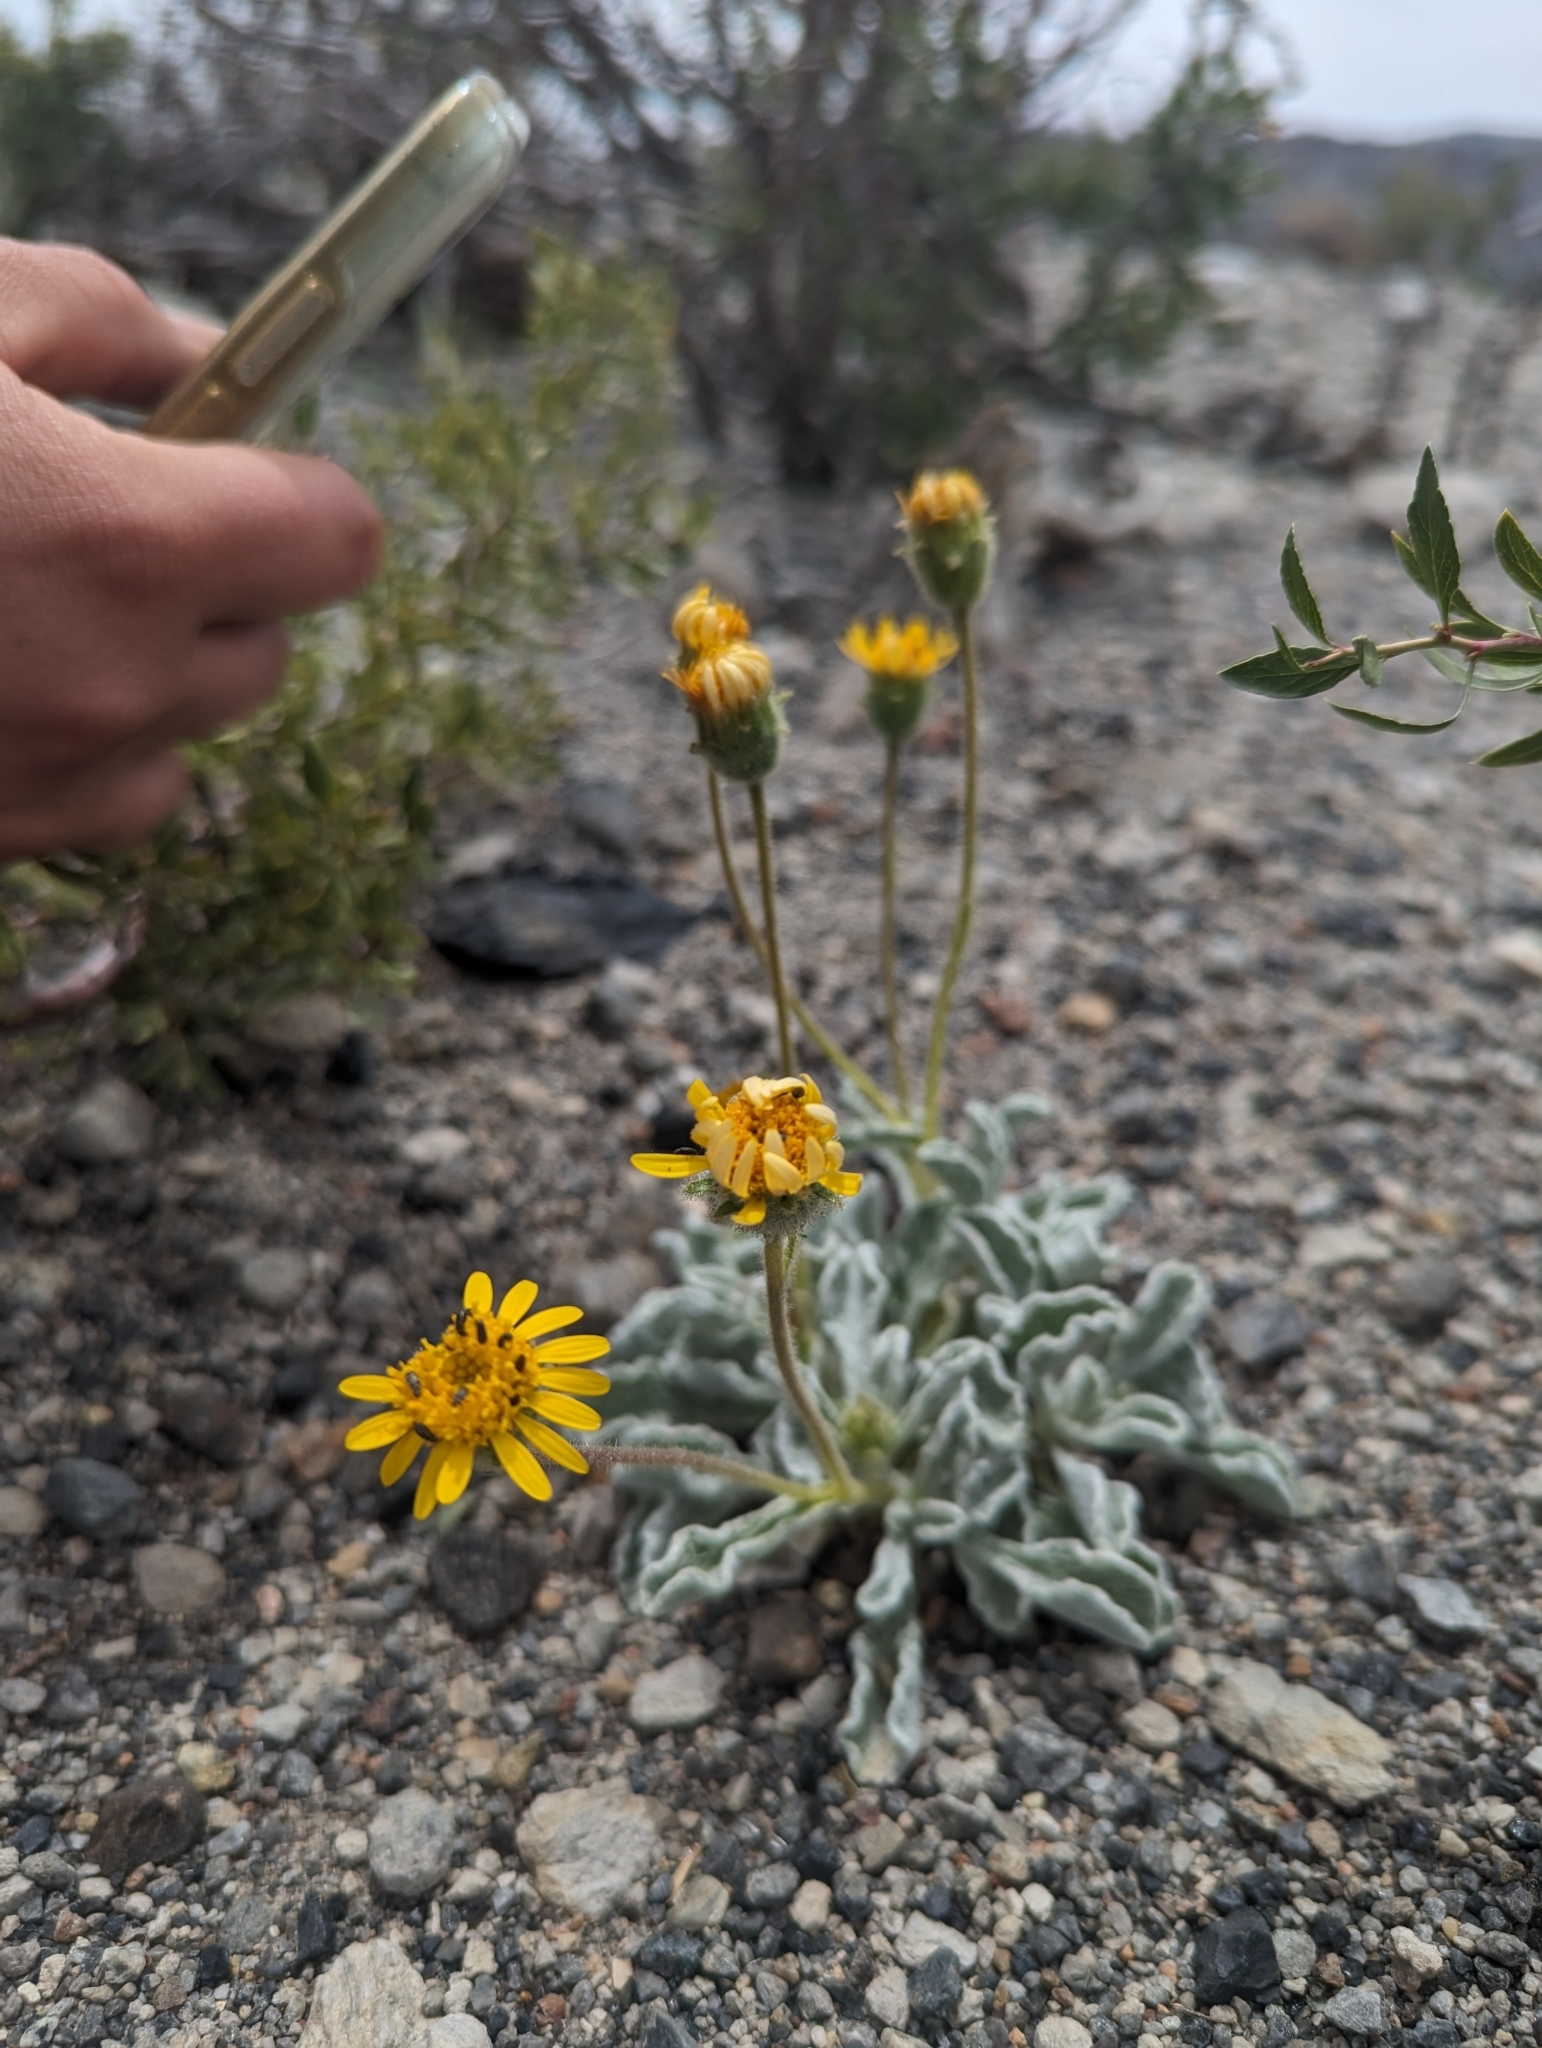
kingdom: Plantae
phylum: Tracheophyta
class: Magnoliopsida
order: Asterales
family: Asteraceae
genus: Hulsea
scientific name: Hulsea vestita
